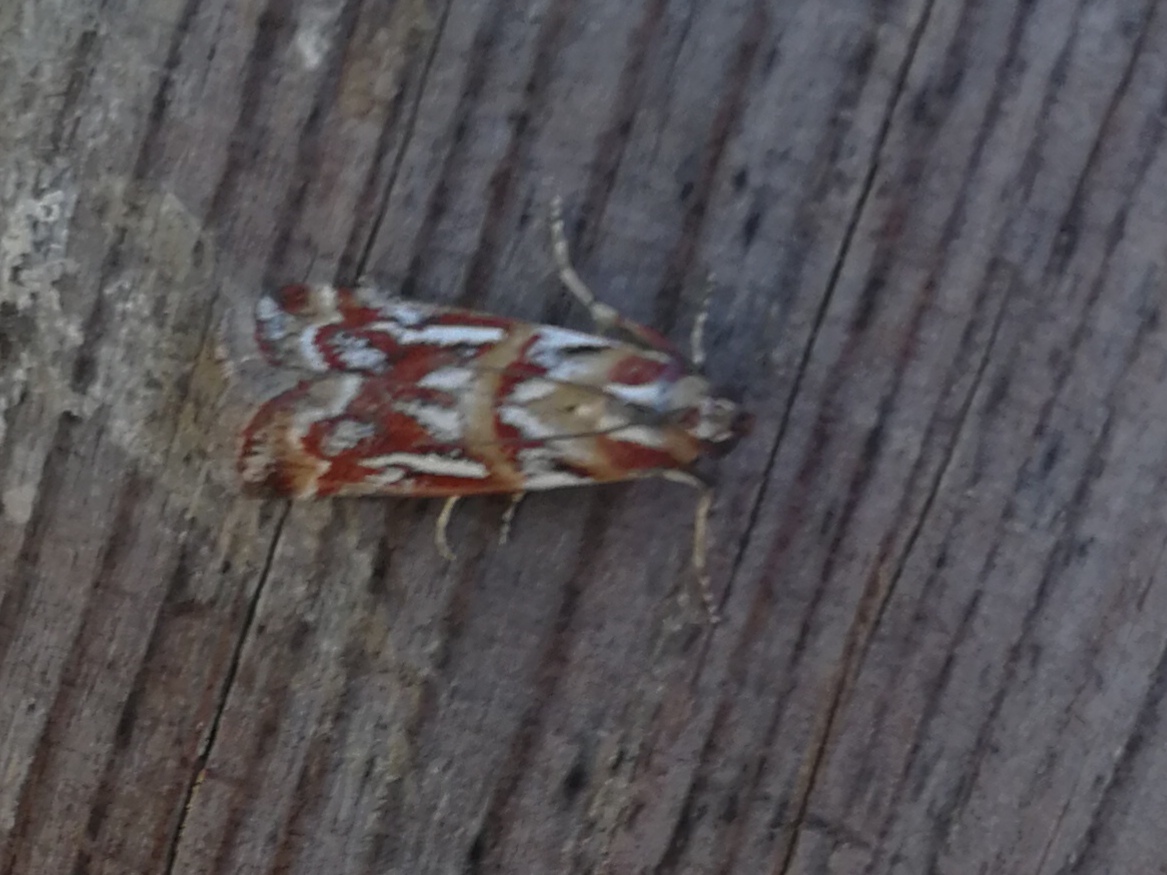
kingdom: Animalia
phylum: Arthropoda
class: Insecta
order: Lepidoptera
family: Pyralidae
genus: Acrobasis
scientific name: Acrobasis porphyrella
